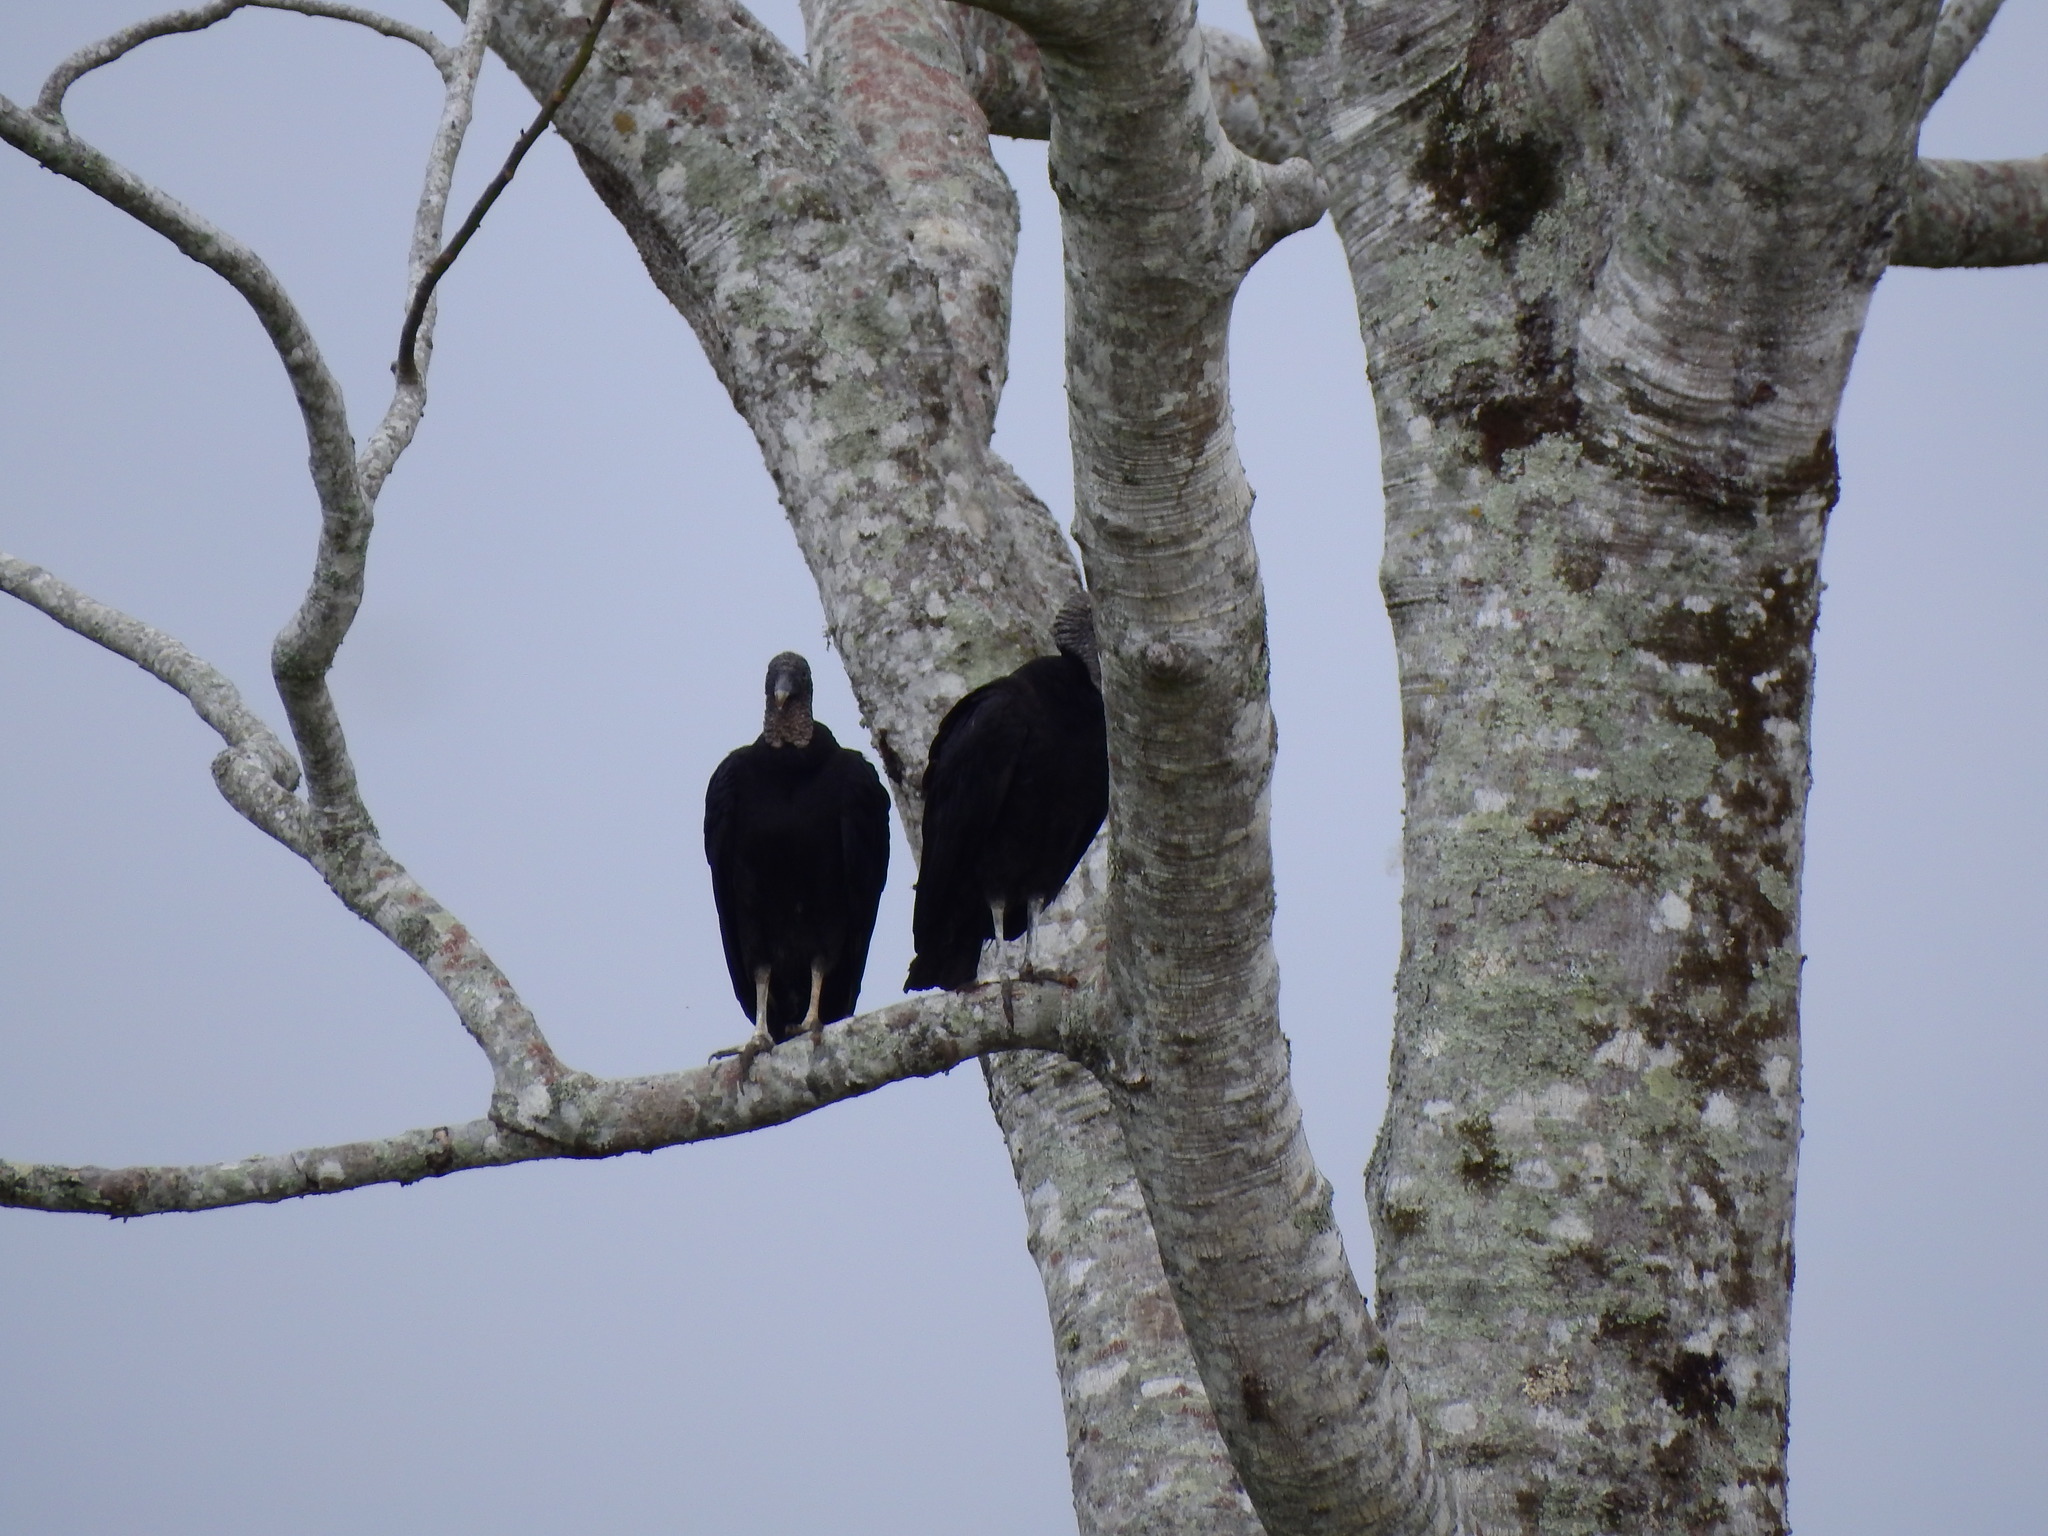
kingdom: Animalia
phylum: Chordata
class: Aves
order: Accipitriformes
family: Cathartidae
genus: Coragyps
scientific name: Coragyps atratus
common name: Black vulture
